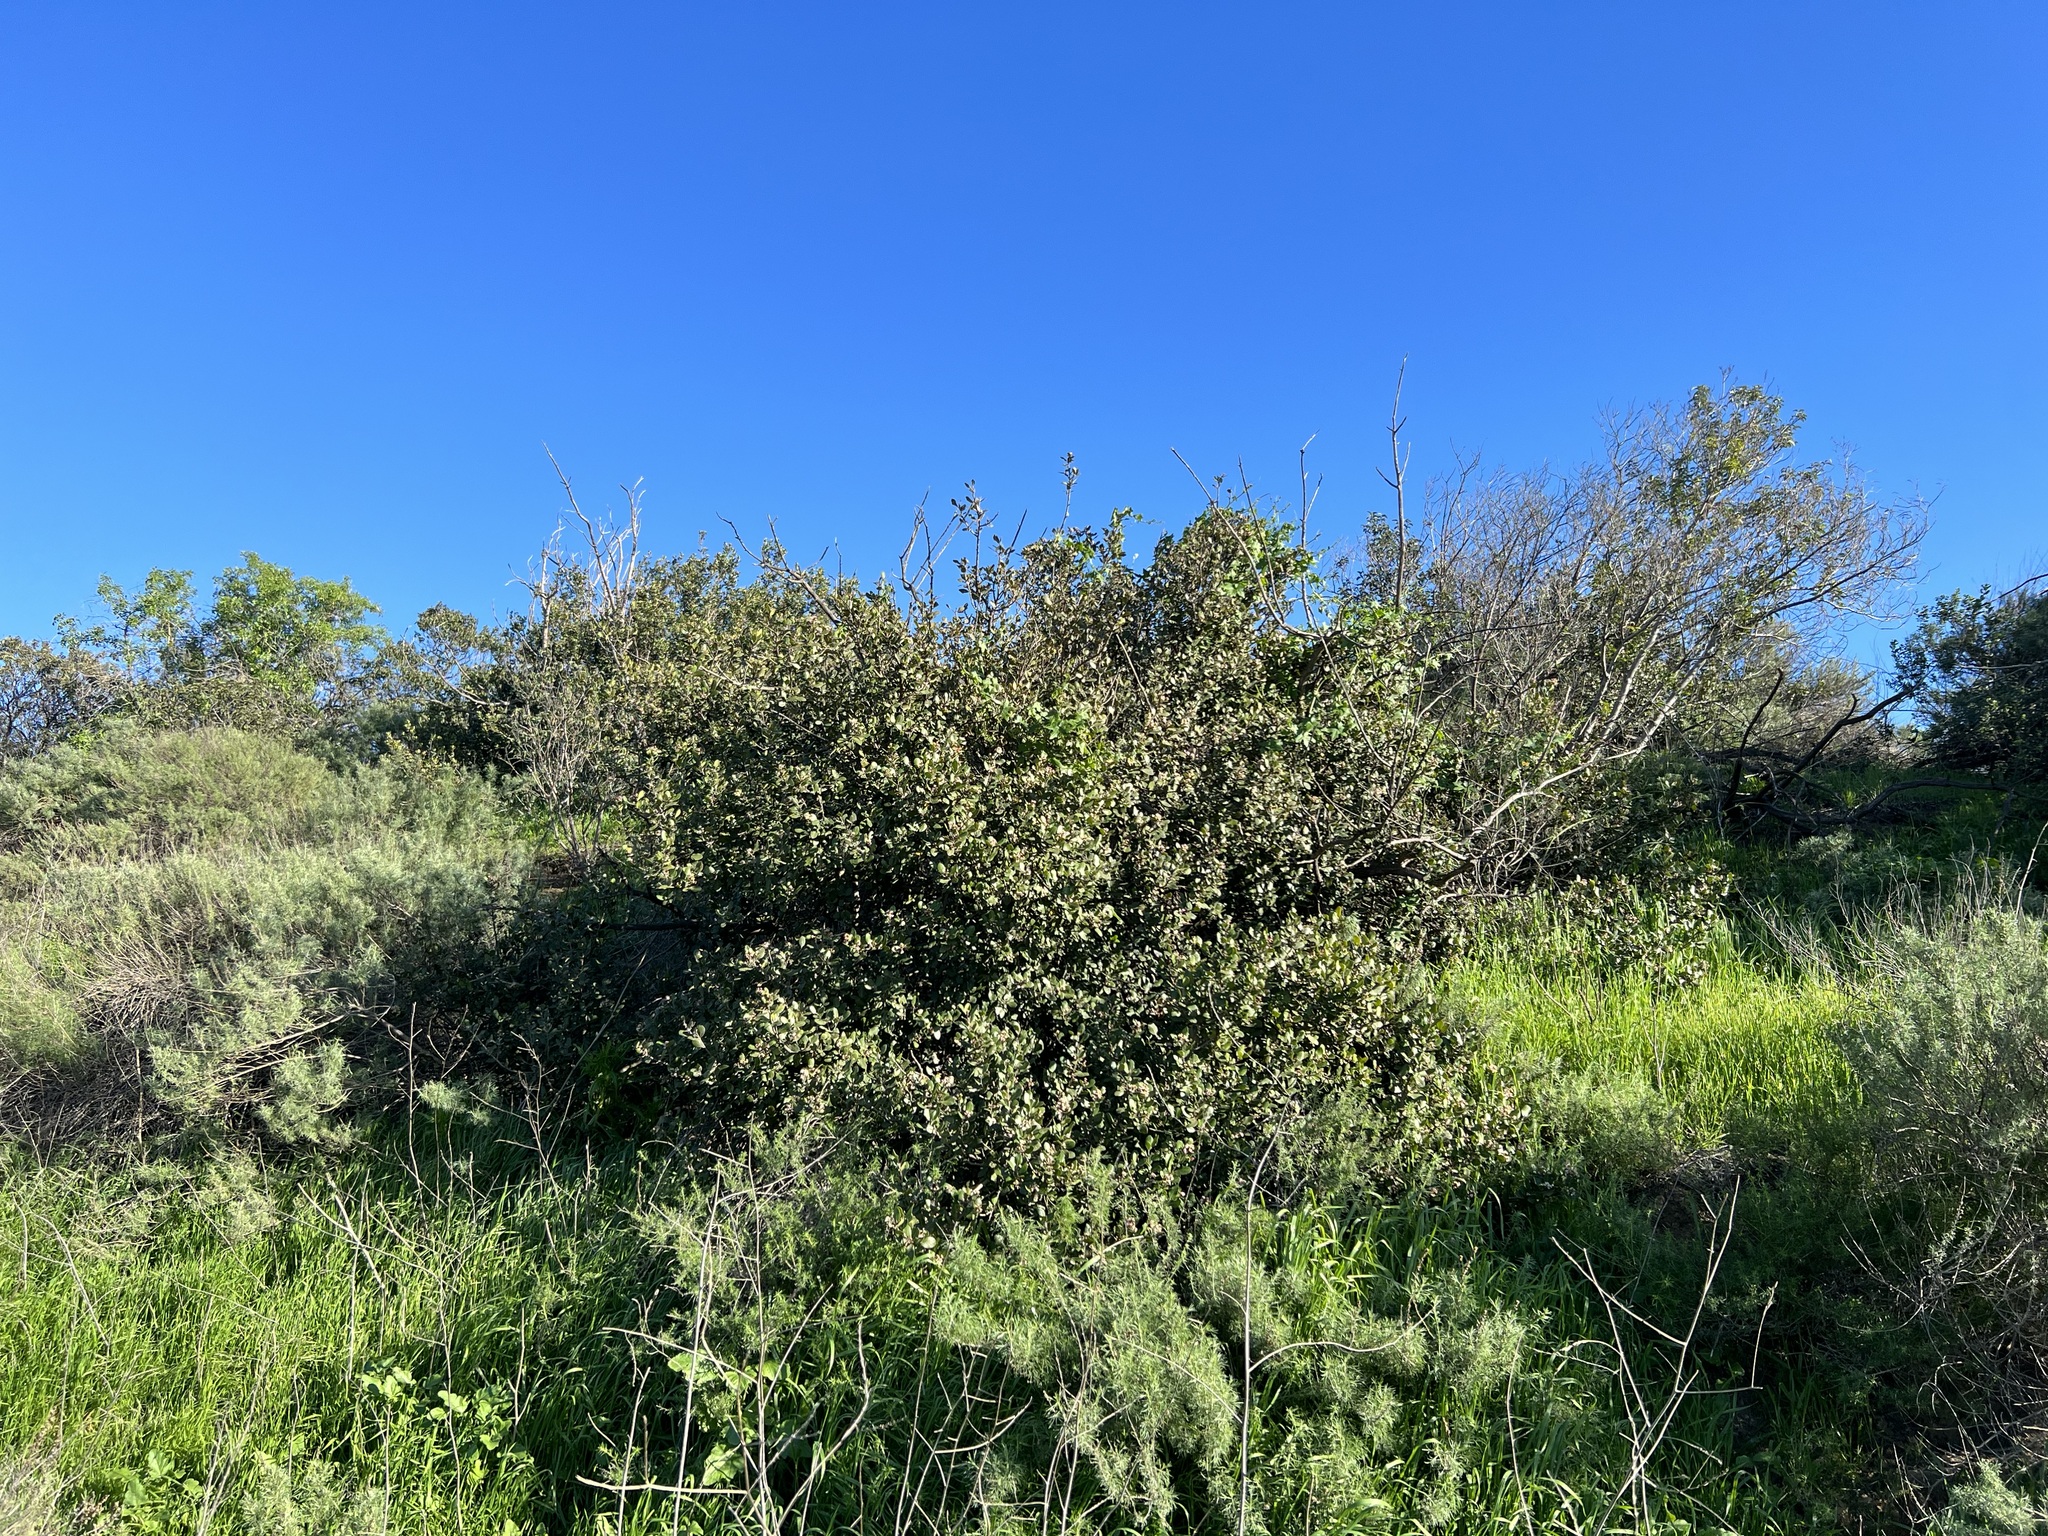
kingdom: Plantae
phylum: Tracheophyta
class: Magnoliopsida
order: Sapindales
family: Anacardiaceae
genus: Rhus
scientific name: Rhus integrifolia
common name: Lemonade sumac
